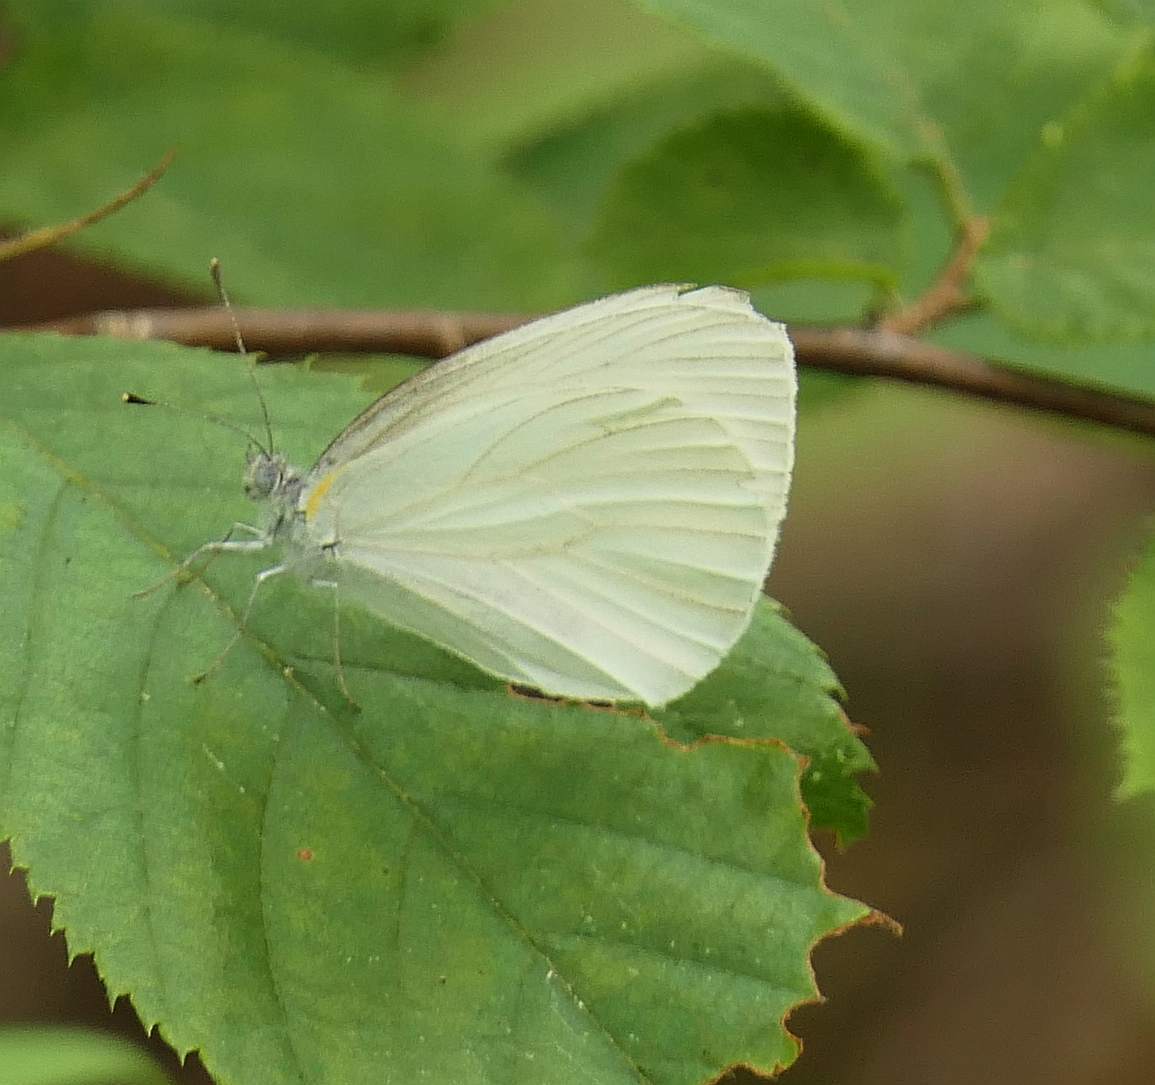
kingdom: Animalia
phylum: Arthropoda
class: Insecta
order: Lepidoptera
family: Pieridae
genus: Pieris
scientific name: Pieris oleracea
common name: Mustard white
